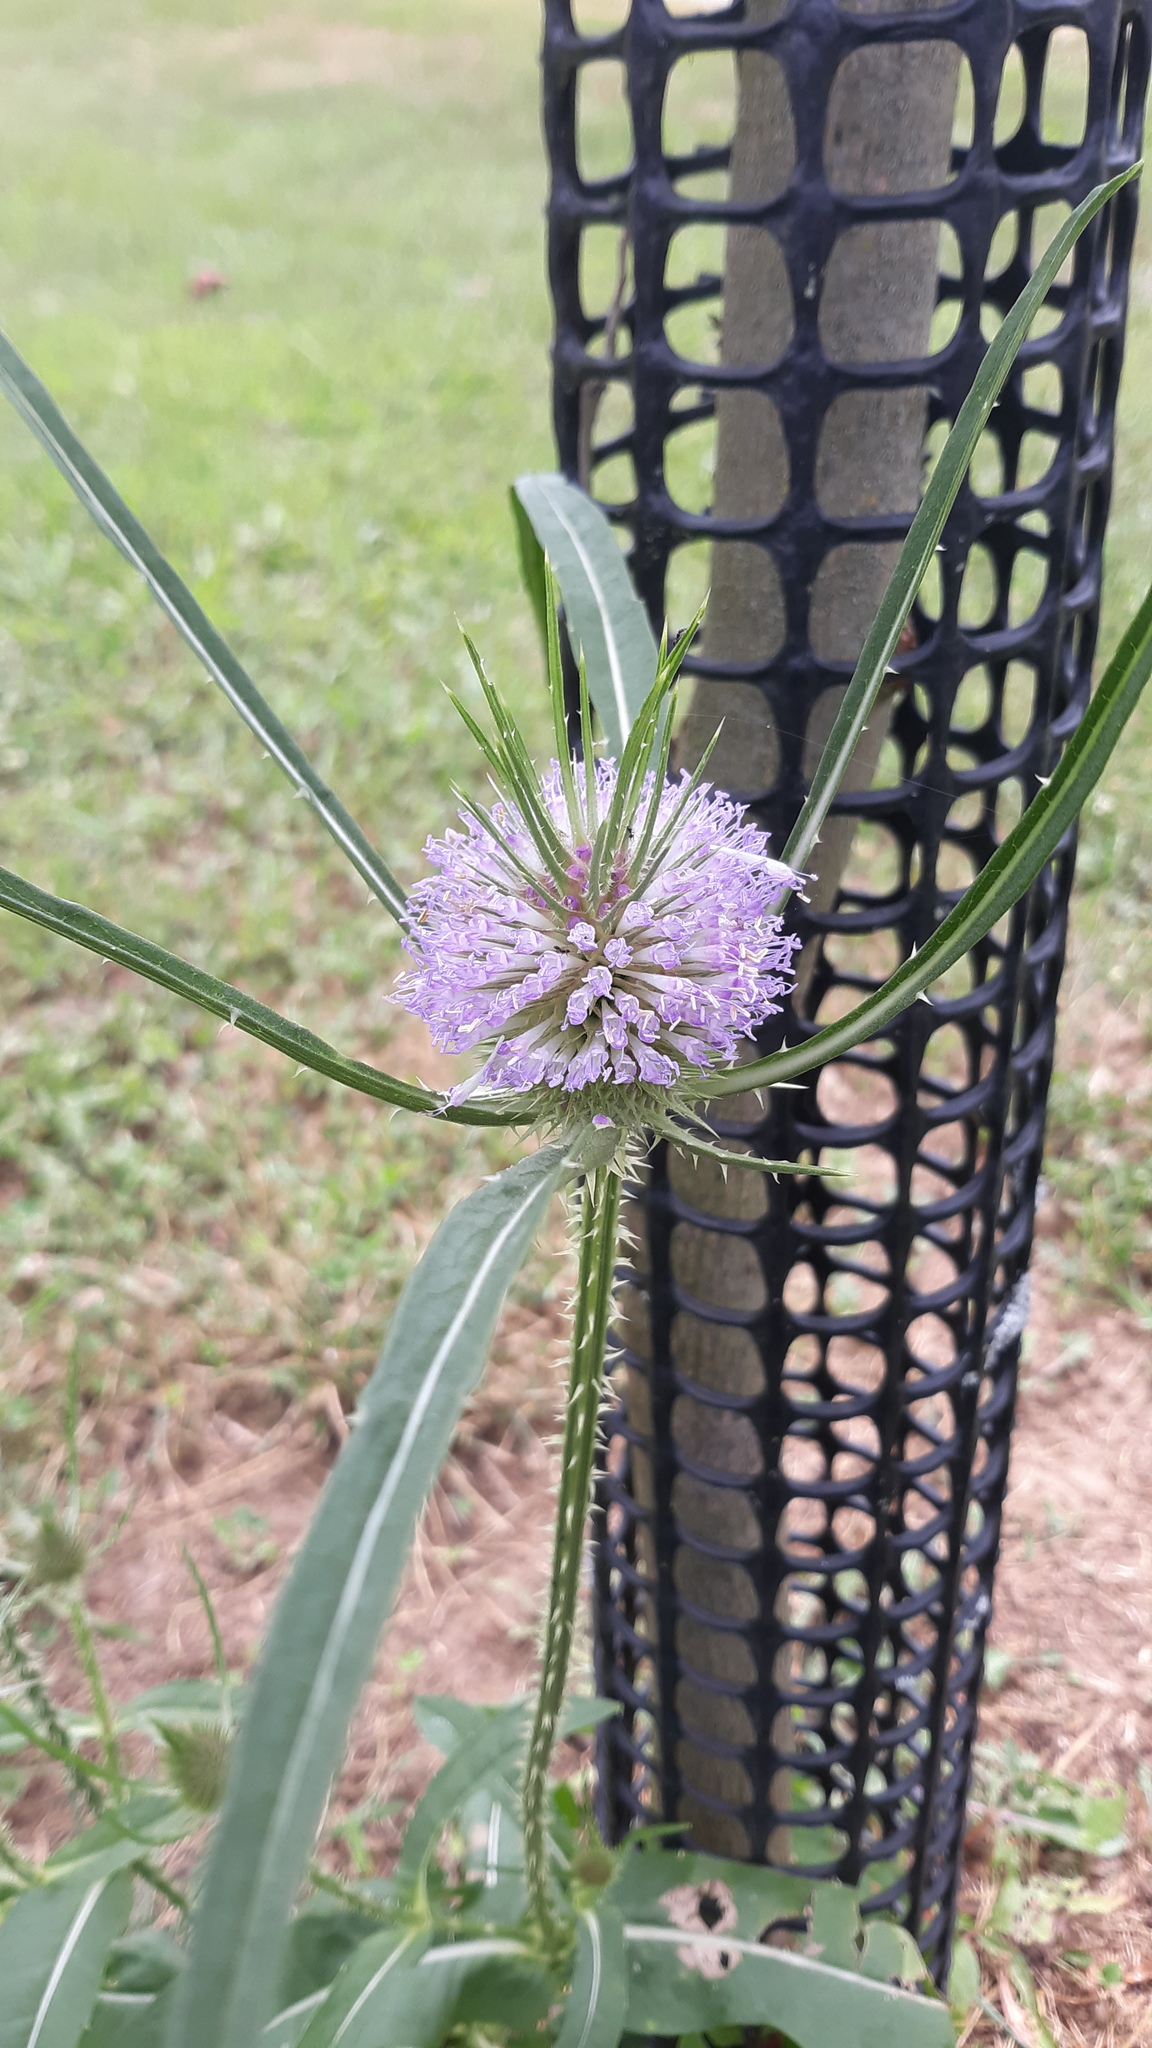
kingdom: Plantae
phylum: Tracheophyta
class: Magnoliopsida
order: Dipsacales
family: Caprifoliaceae
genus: Dipsacus
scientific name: Dipsacus fullonum
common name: Teasel
